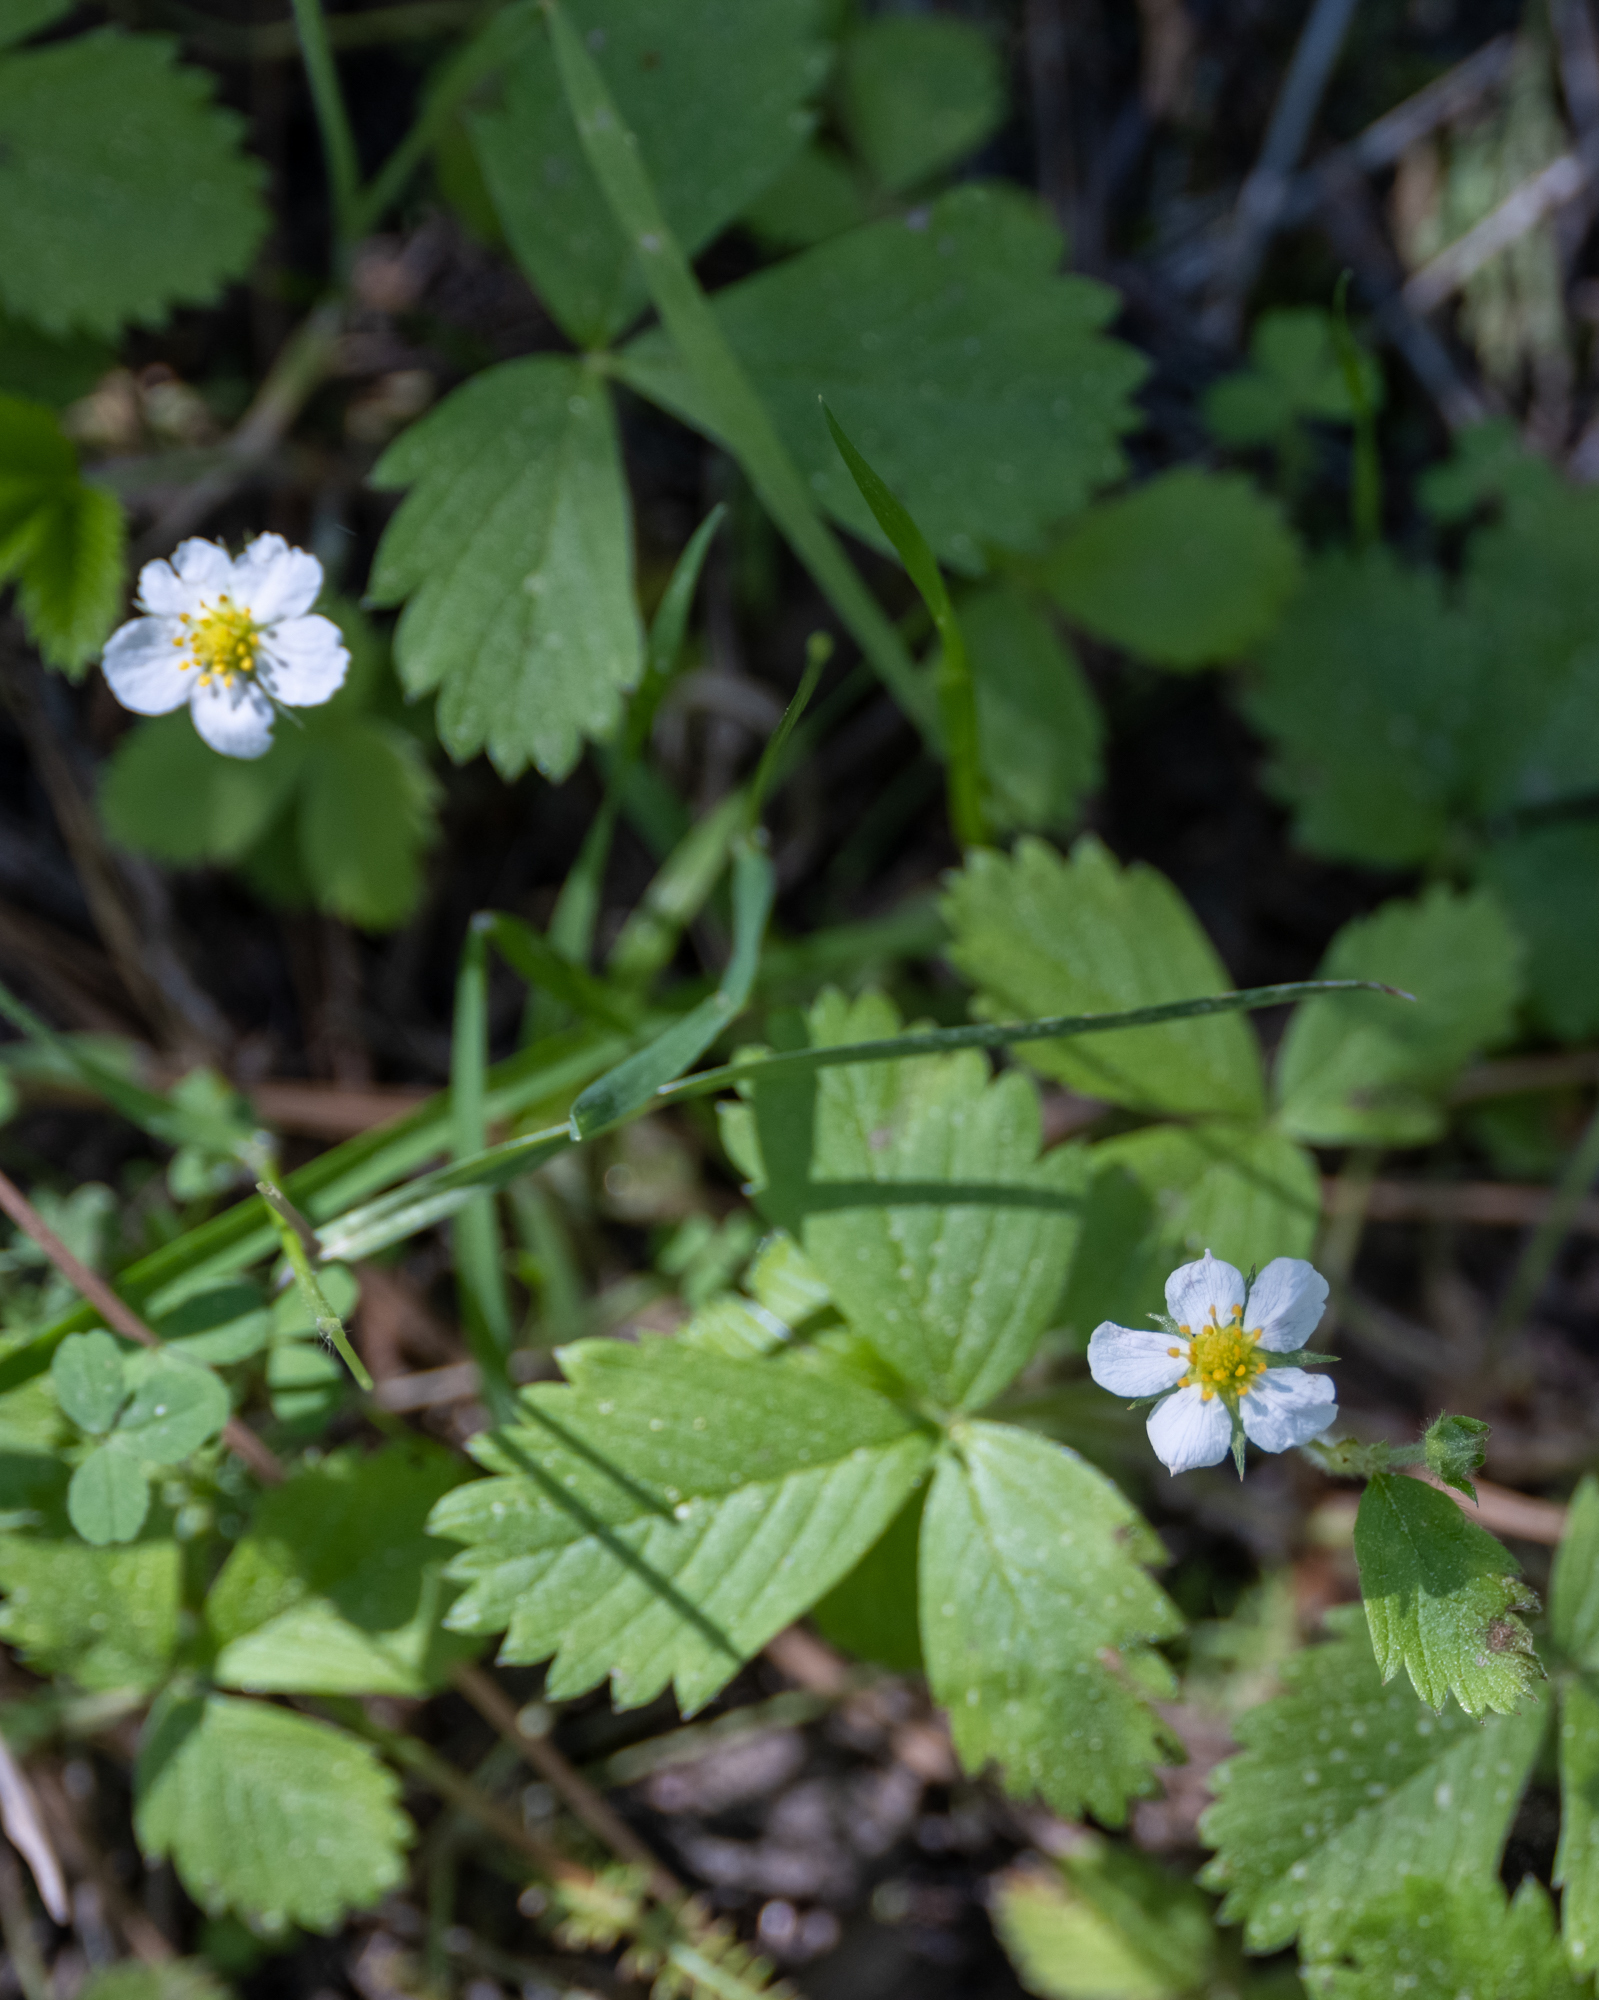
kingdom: Plantae
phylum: Tracheophyta
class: Magnoliopsida
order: Rosales
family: Rosaceae
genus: Fragaria
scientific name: Fragaria vesca
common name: Wild strawberry
